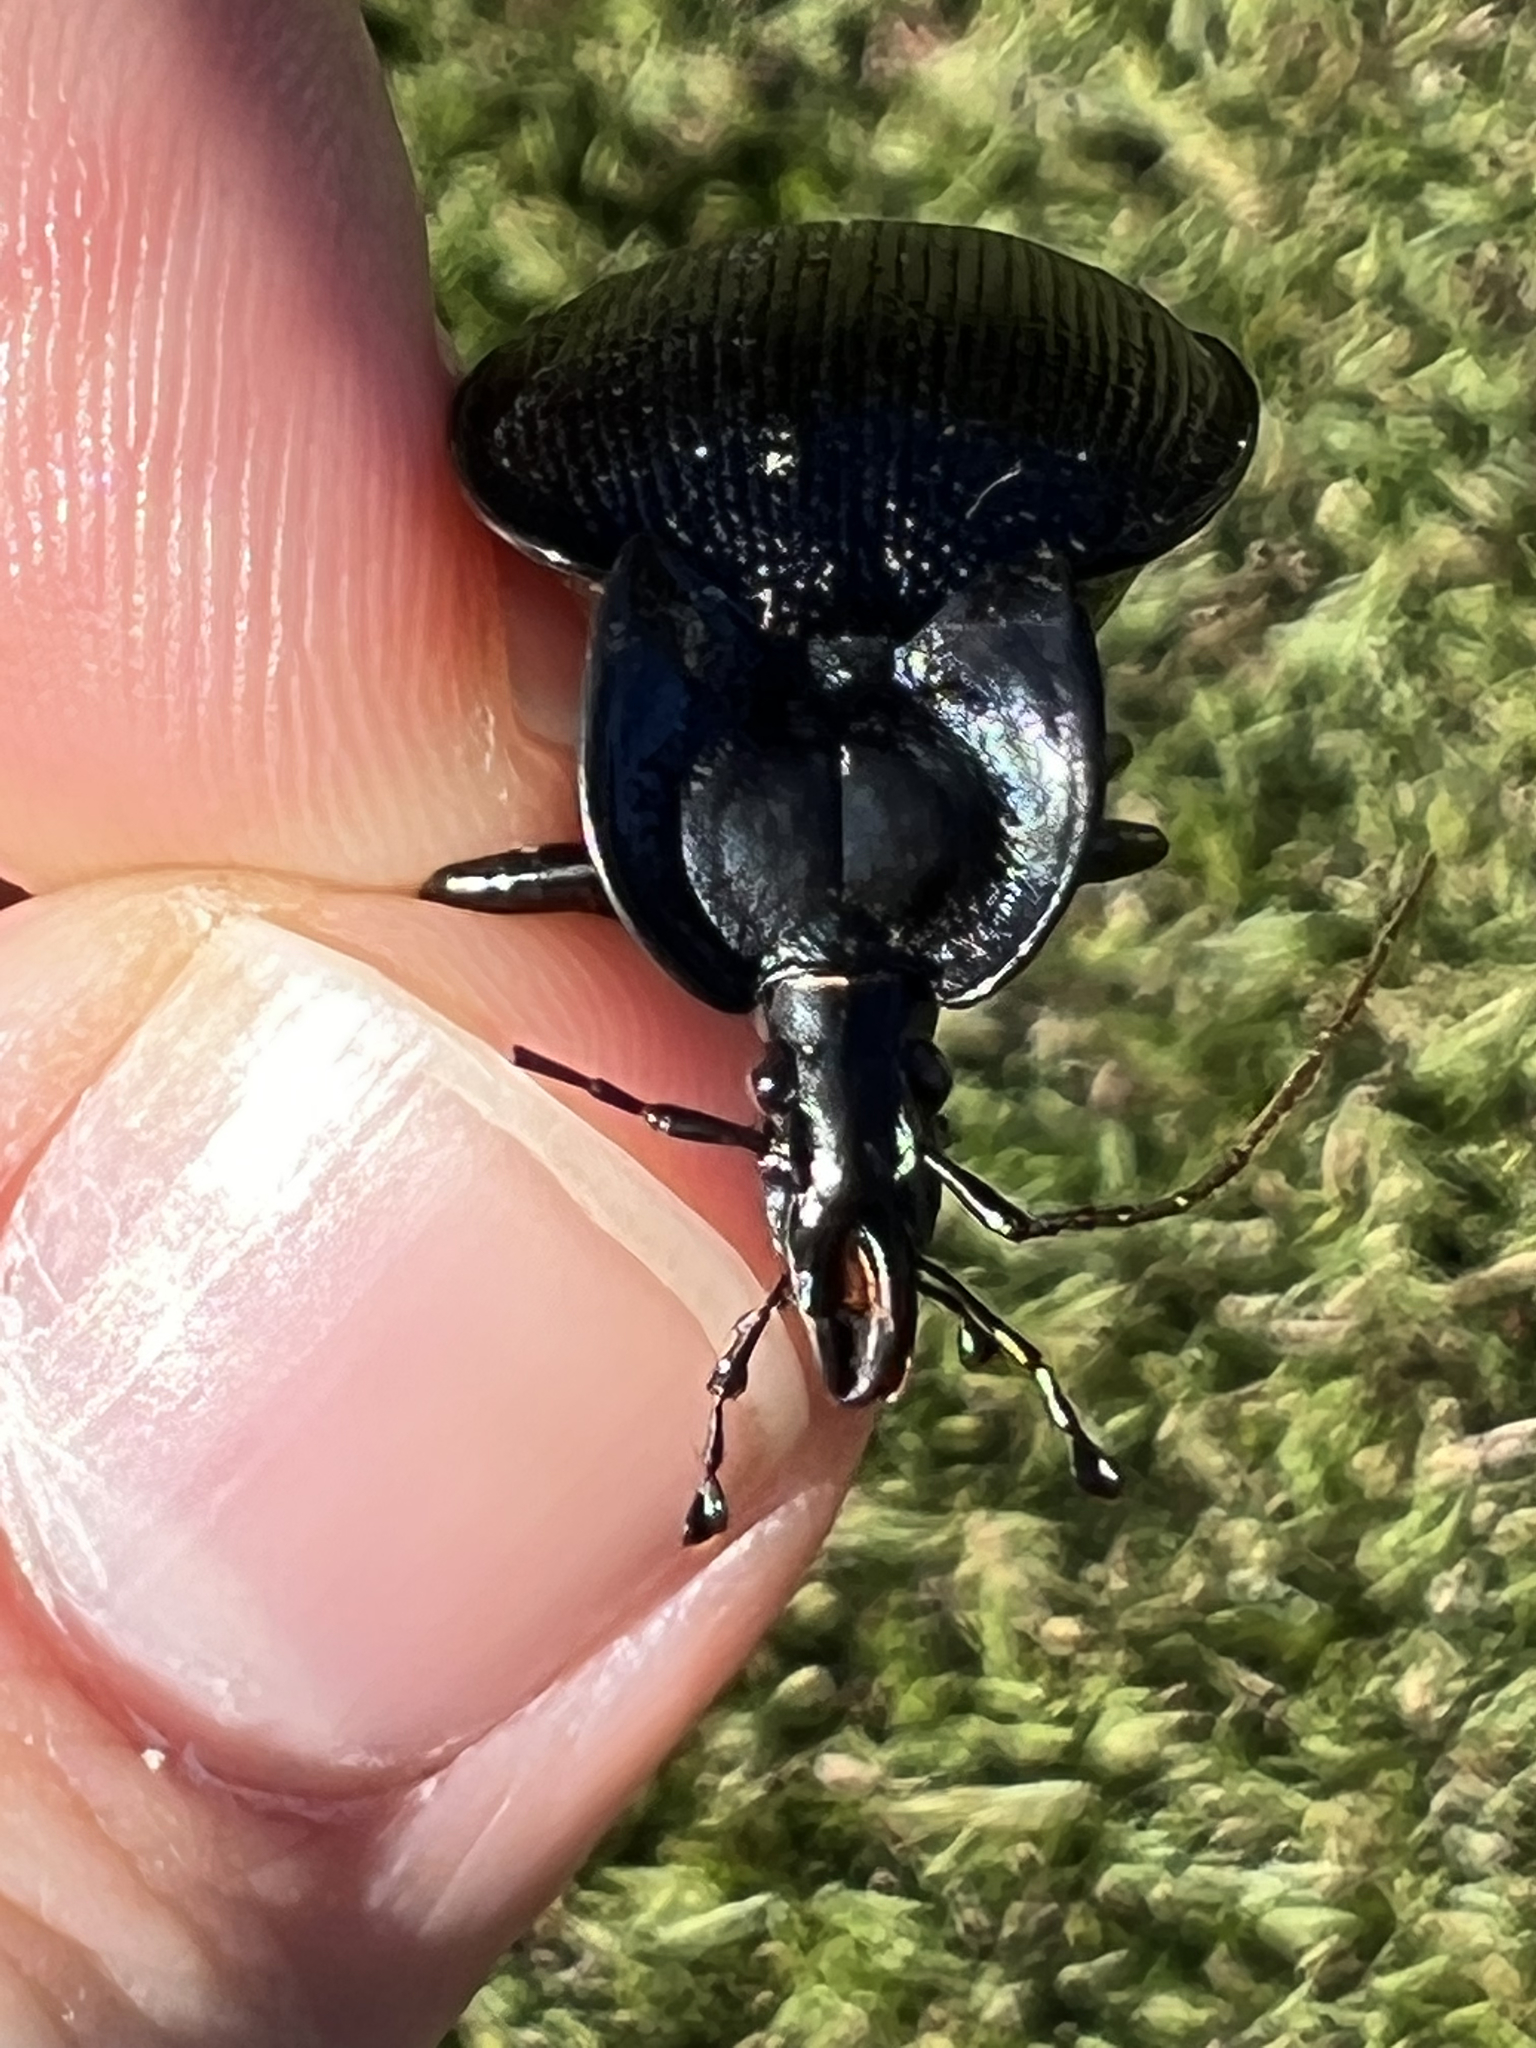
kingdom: Animalia
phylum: Arthropoda
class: Insecta
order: Coleoptera
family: Carabidae
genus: Scaphinotus
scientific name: Scaphinotus unicolor
